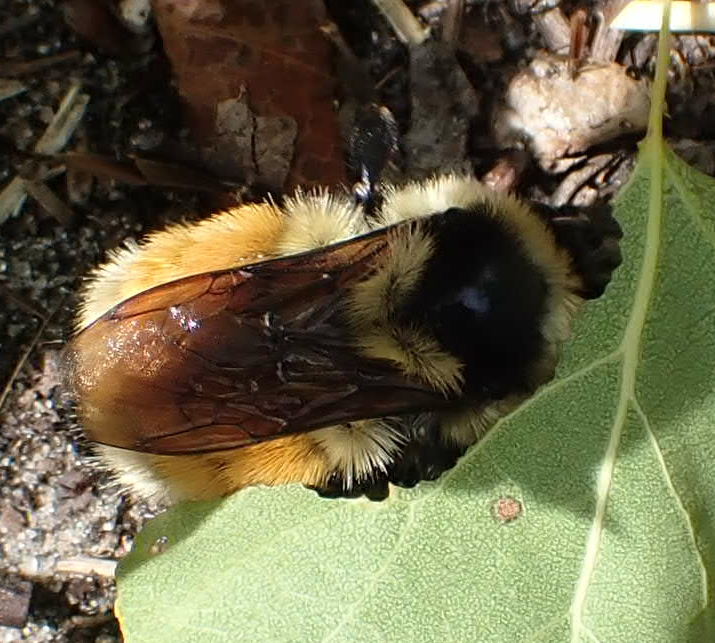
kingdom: Animalia
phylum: Arthropoda
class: Insecta
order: Hymenoptera
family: Apidae
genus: Bombus
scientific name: Bombus ternarius
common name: Tri-colored bumble bee
